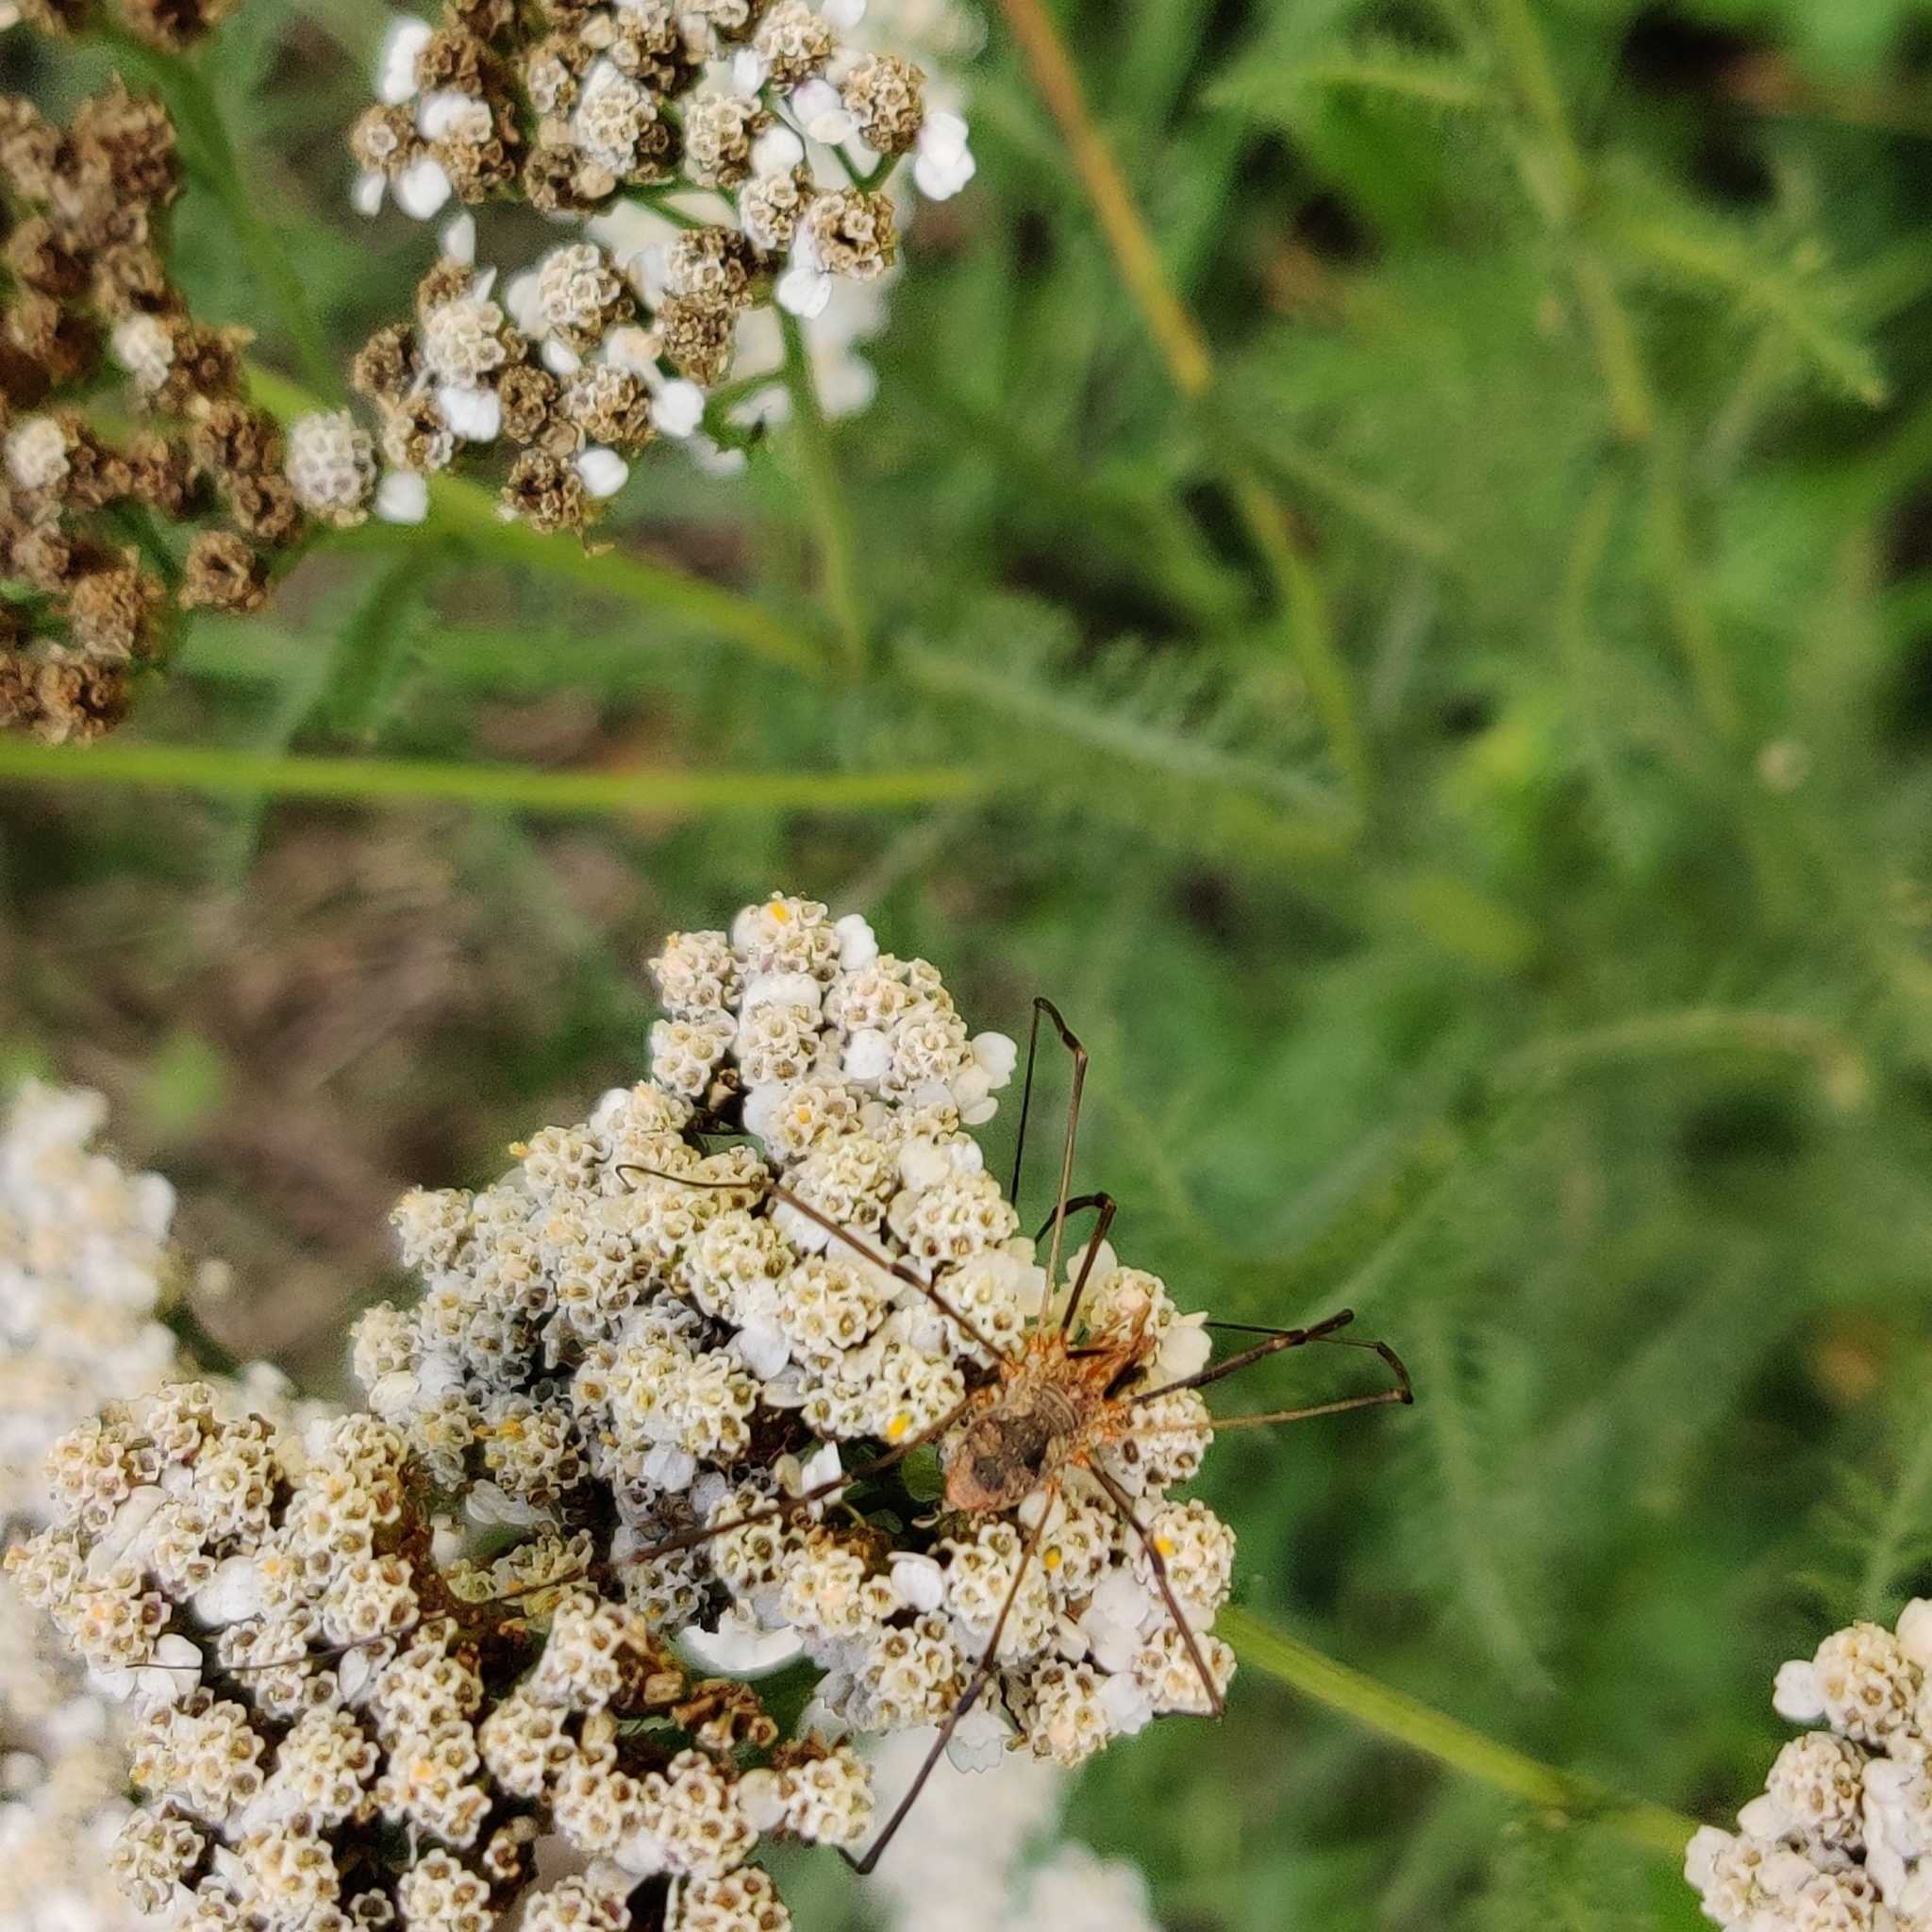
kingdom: Animalia
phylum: Arthropoda
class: Arachnida
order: Opiliones
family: Phalangiidae
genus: Phalangium
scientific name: Phalangium opilio
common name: Daddy longleg
